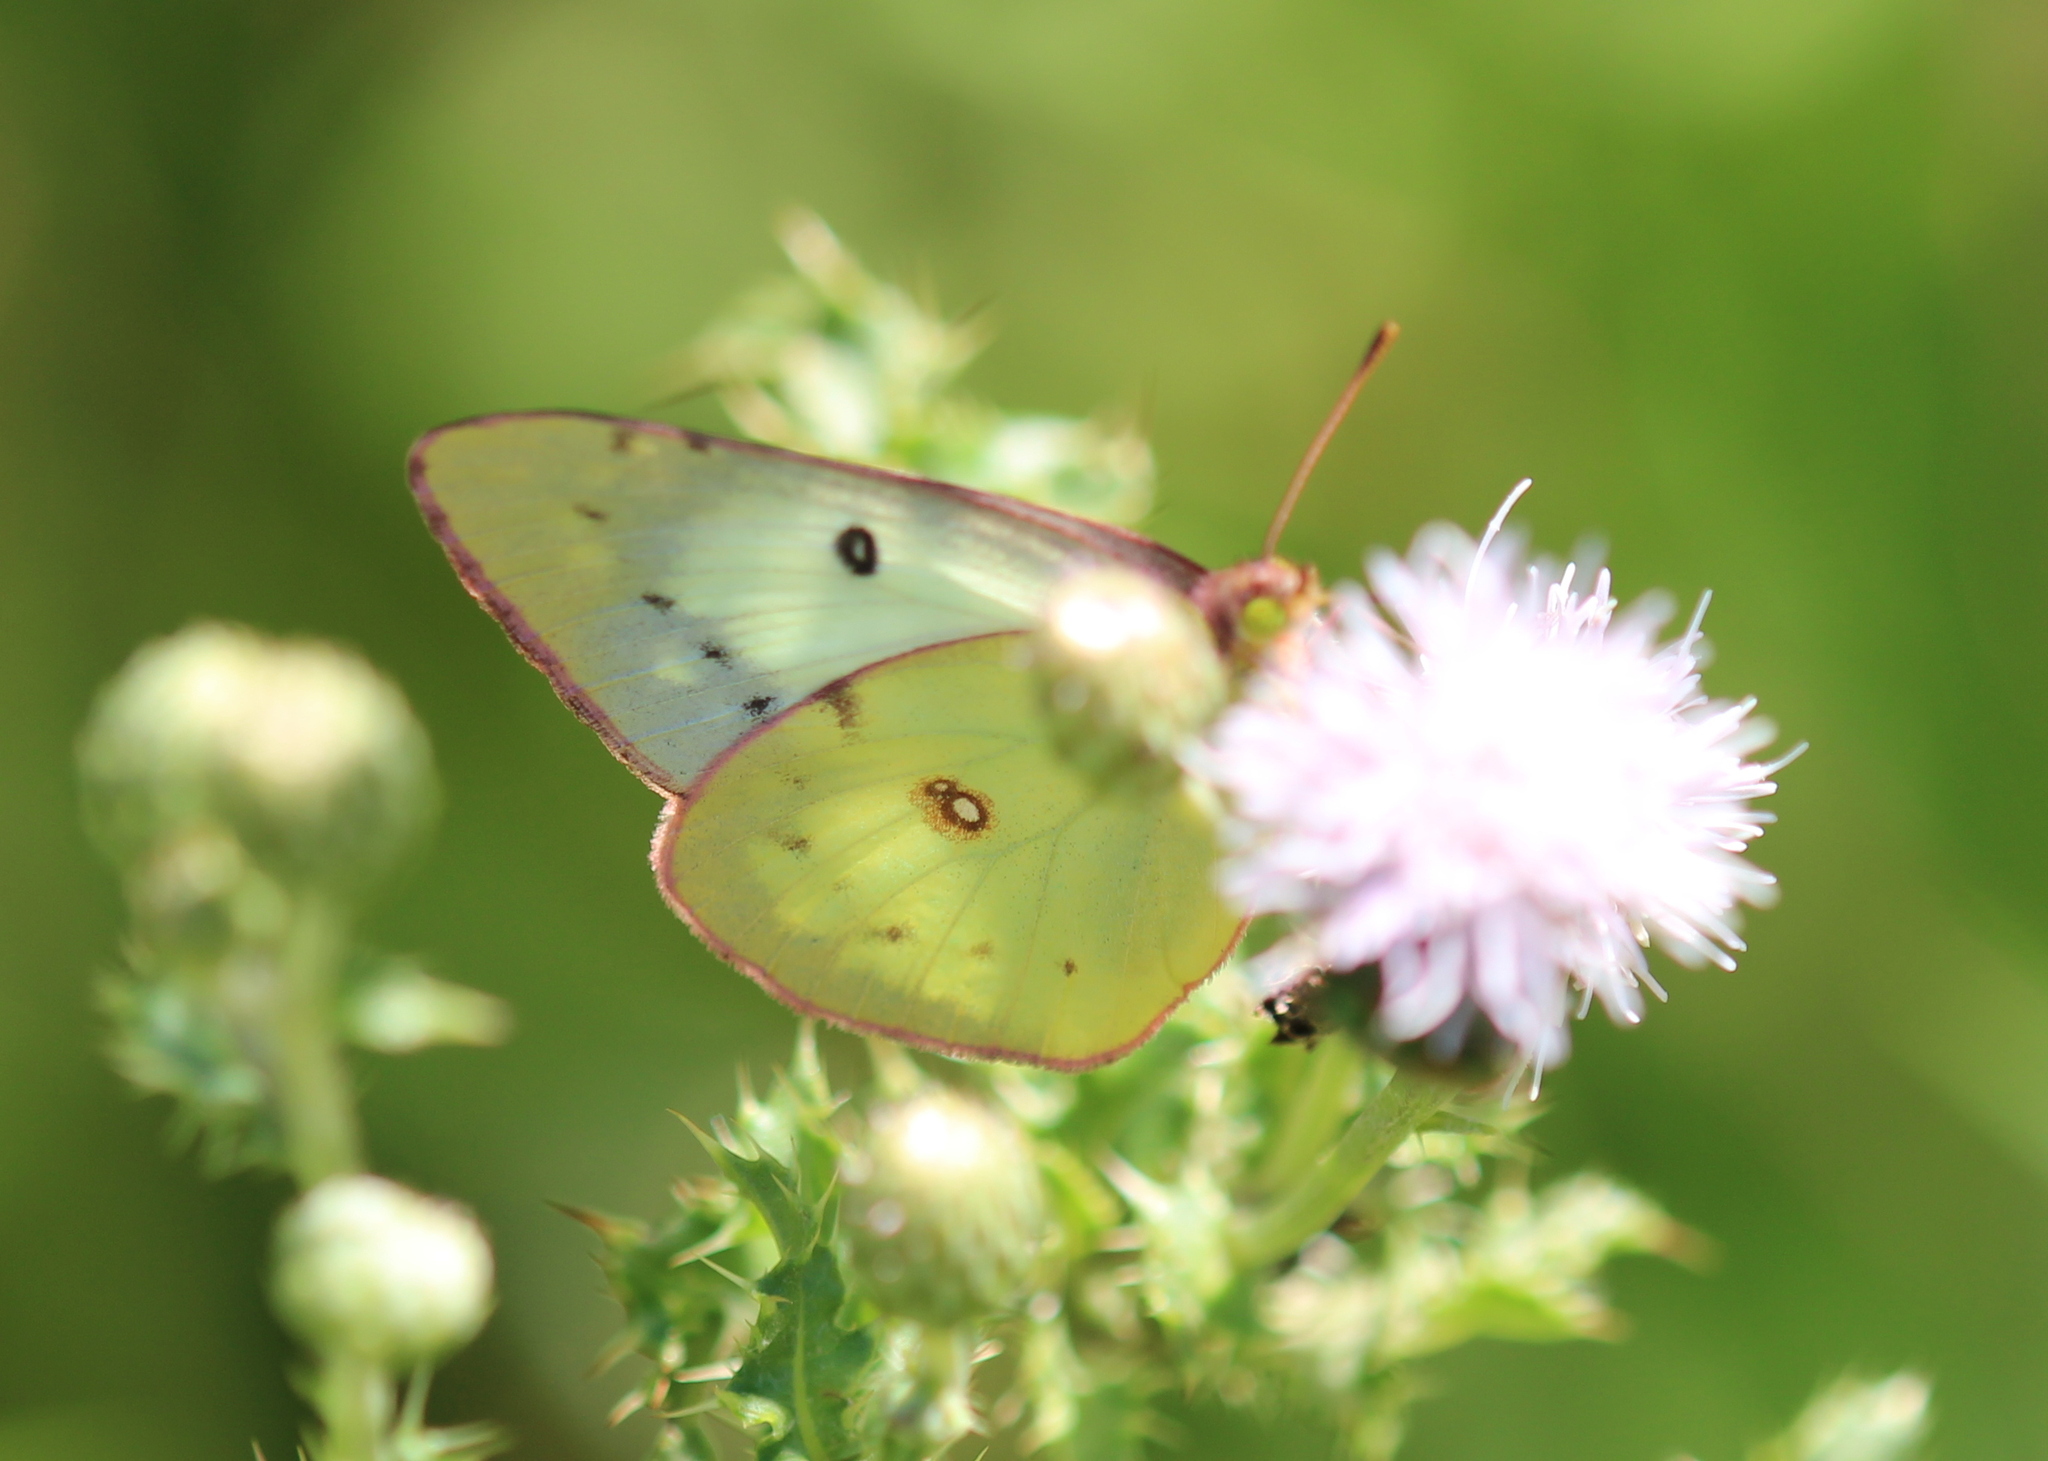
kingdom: Animalia
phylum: Arthropoda
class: Insecta
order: Lepidoptera
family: Pieridae
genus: Colias
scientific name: Colias philodice
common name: Clouded sulphur
